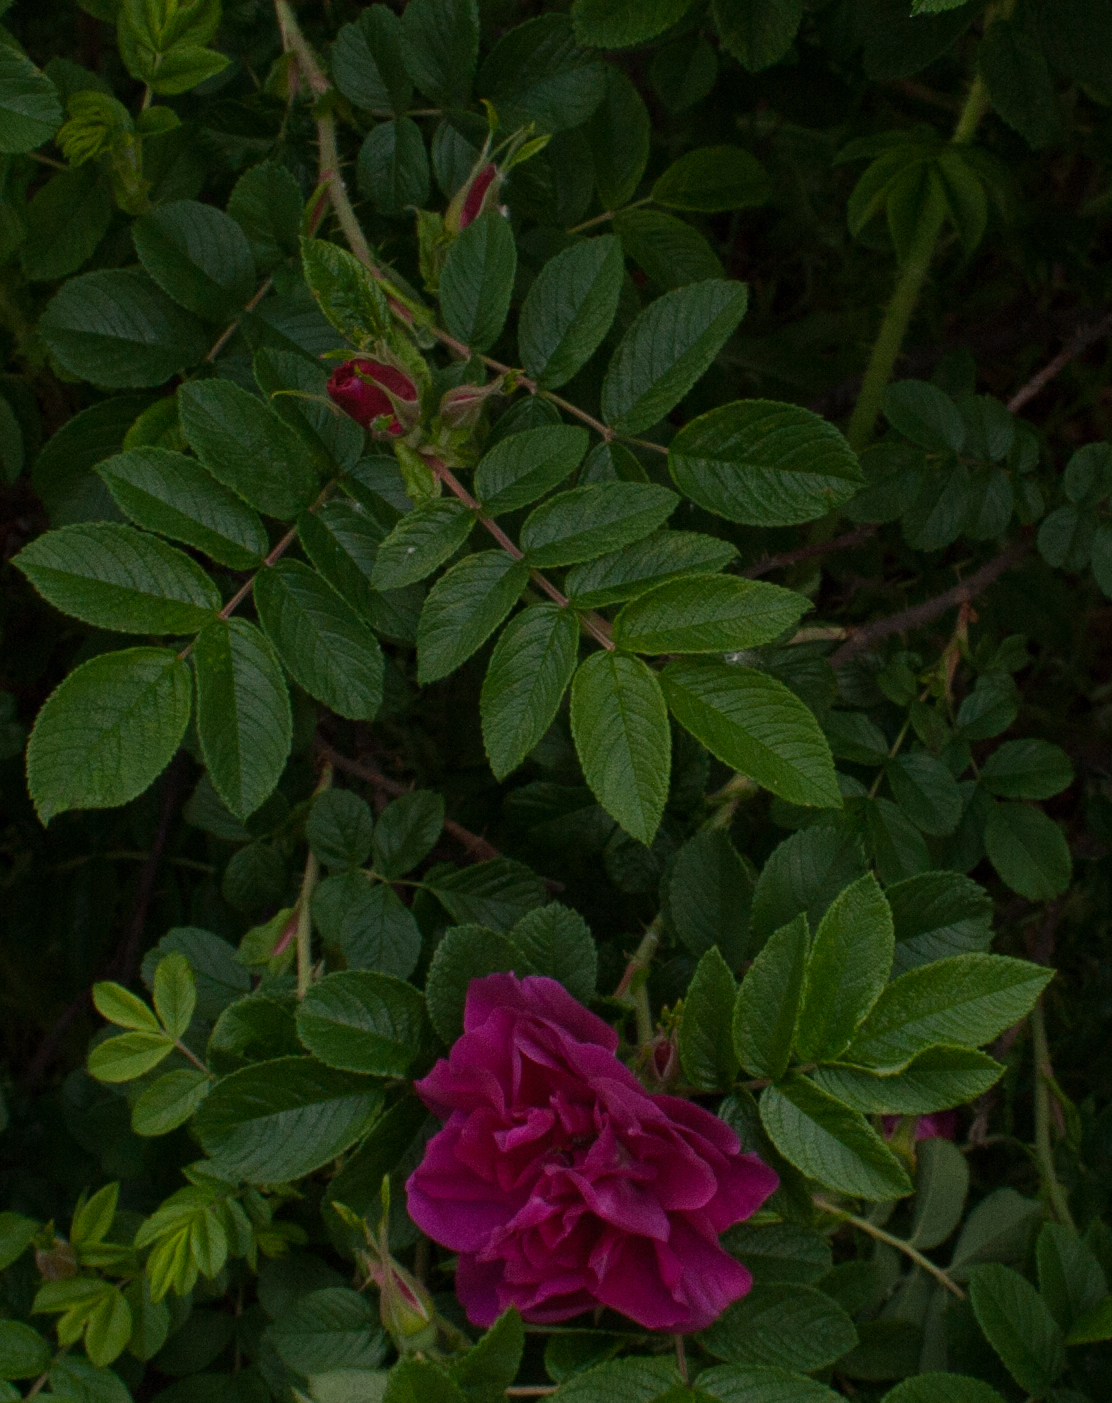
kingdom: Plantae
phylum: Tracheophyta
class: Magnoliopsida
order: Rosales
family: Rosaceae
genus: Rosa
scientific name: Rosa rugosa
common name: Japanese rose
